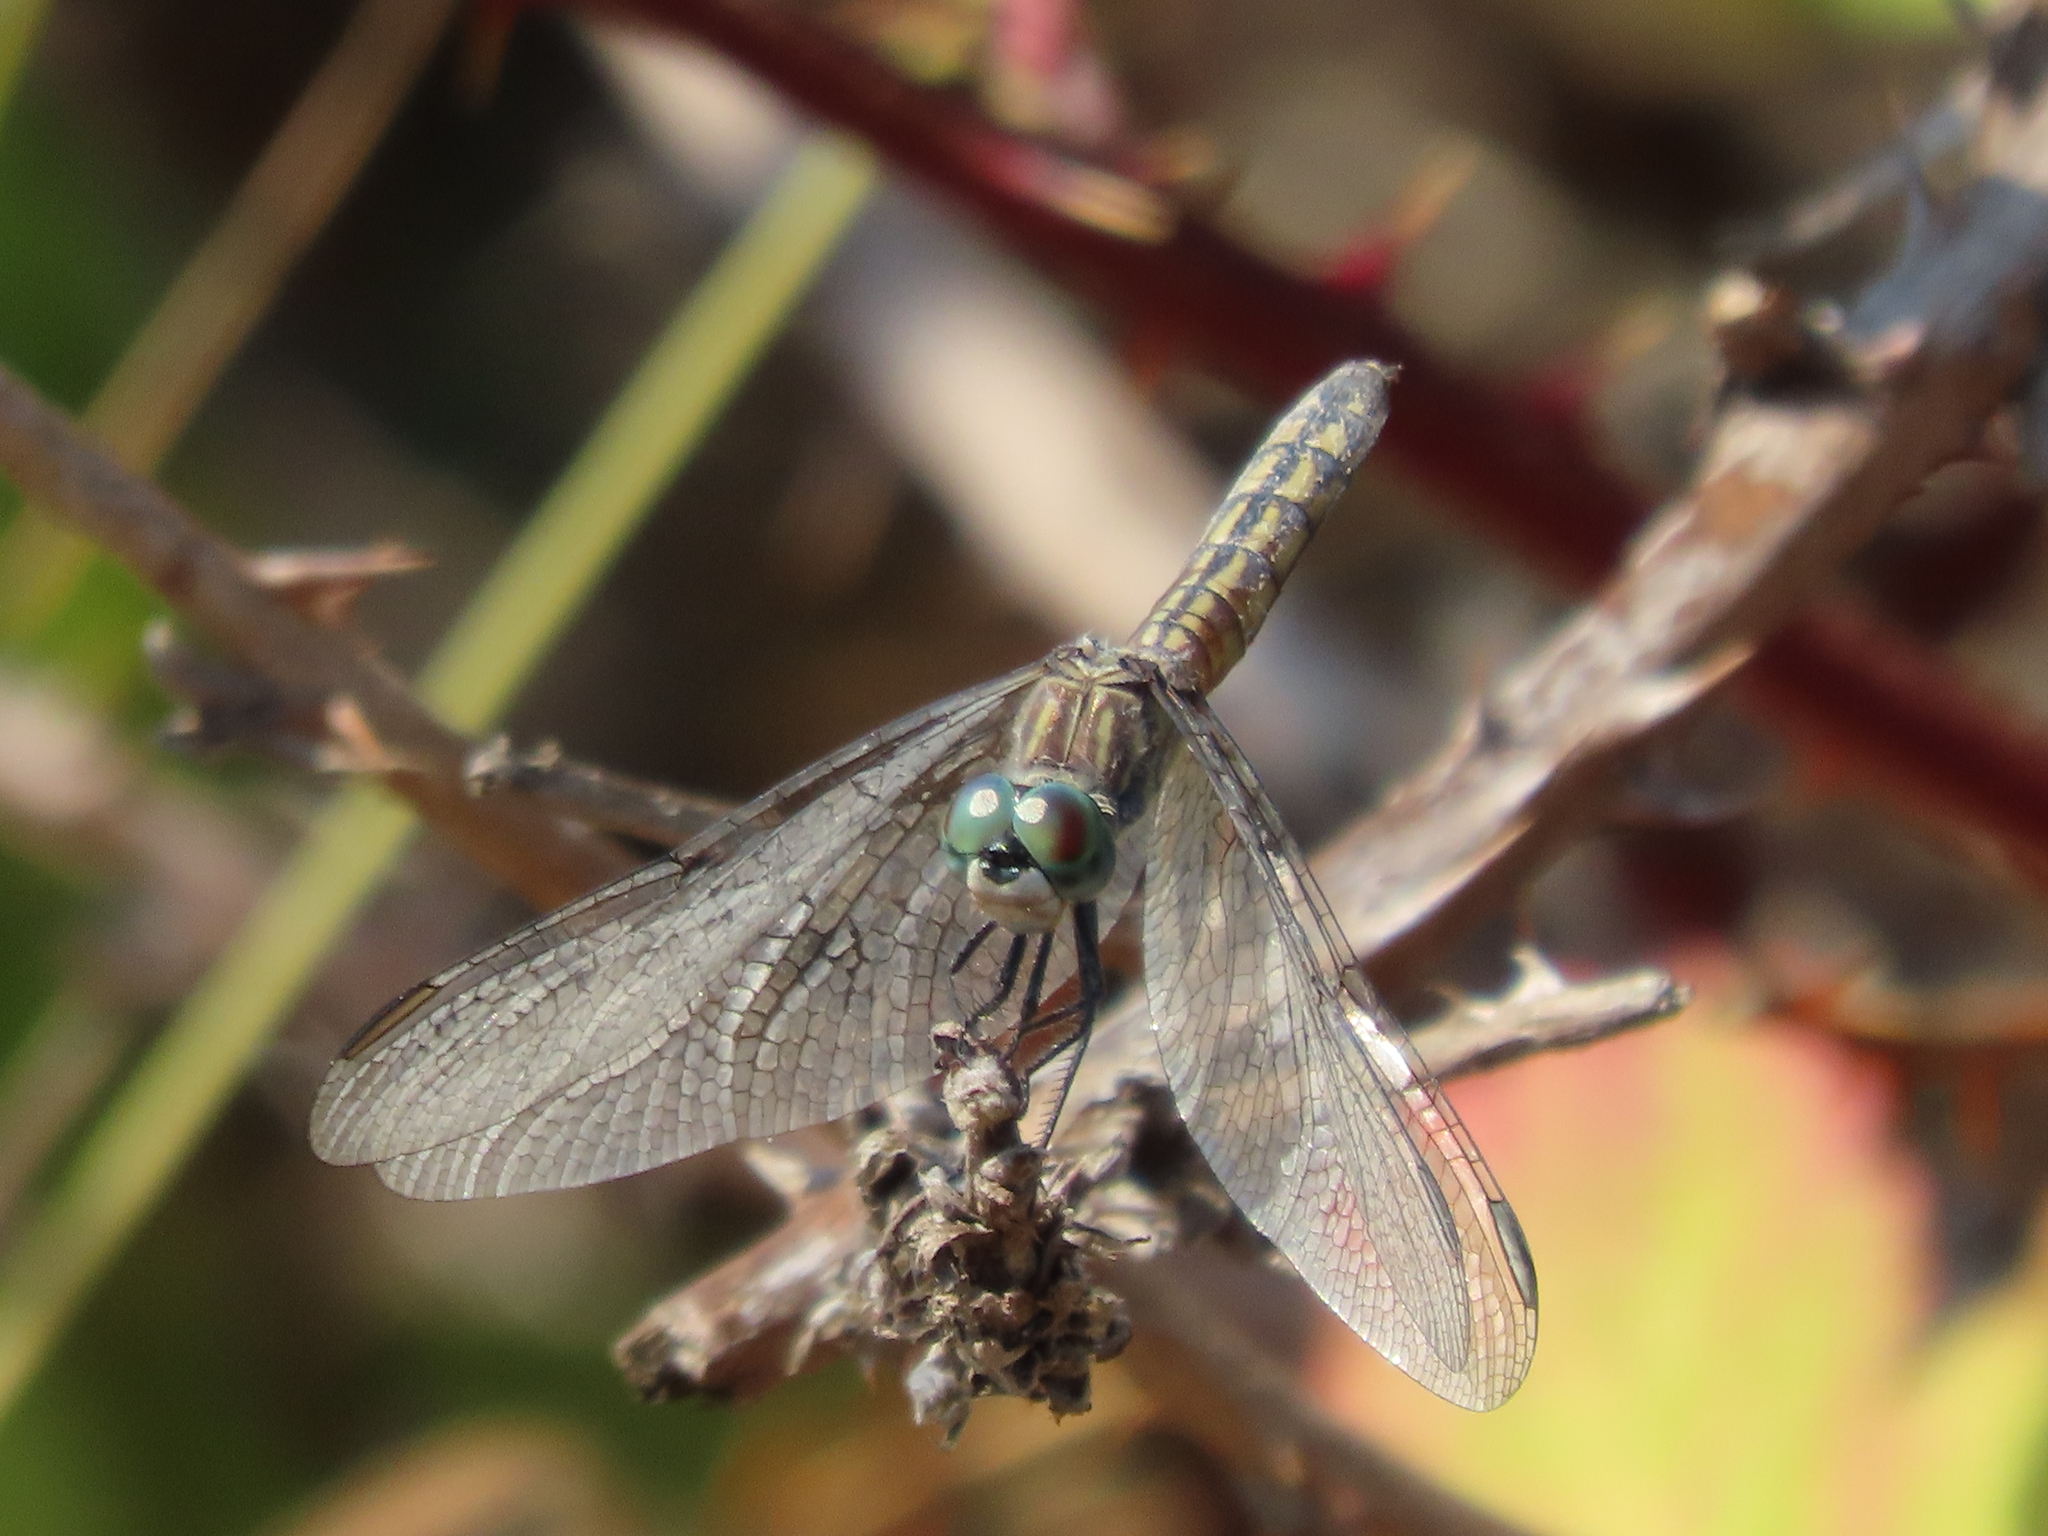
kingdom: Animalia
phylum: Arthropoda
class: Insecta
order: Odonata
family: Libellulidae
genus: Pachydiplax
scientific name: Pachydiplax longipennis
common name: Blue dasher
